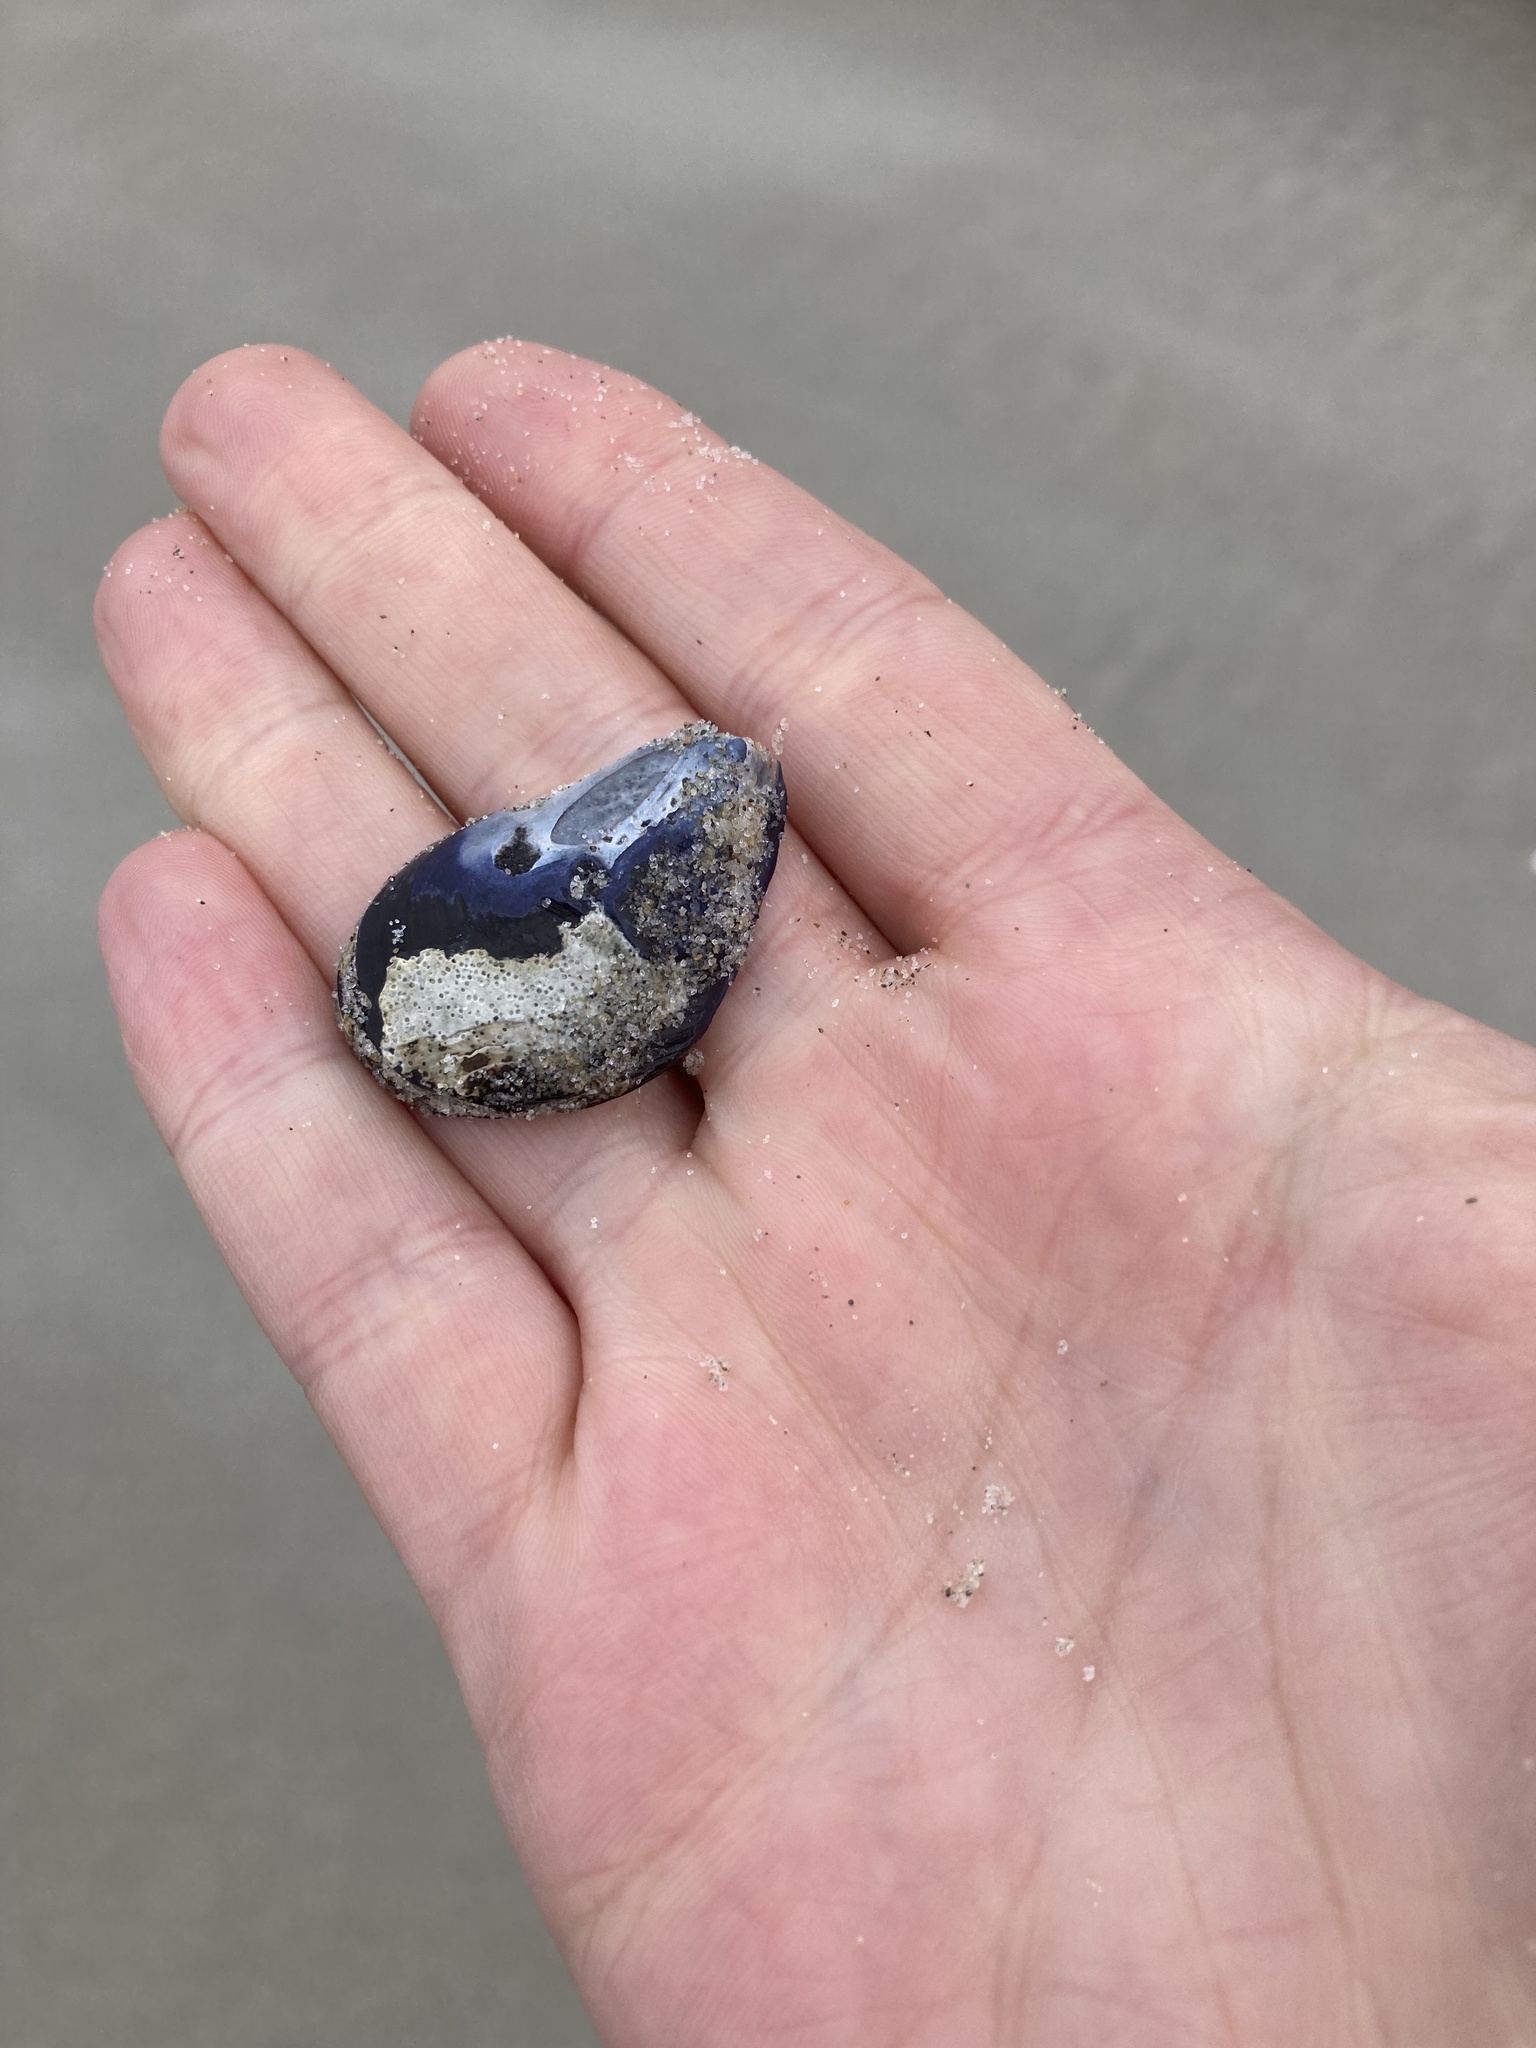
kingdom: Animalia
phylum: Mollusca
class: Bivalvia
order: Mytilida
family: Mytilidae
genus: Mytilus
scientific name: Mytilus planulatus
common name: Australian mussel
